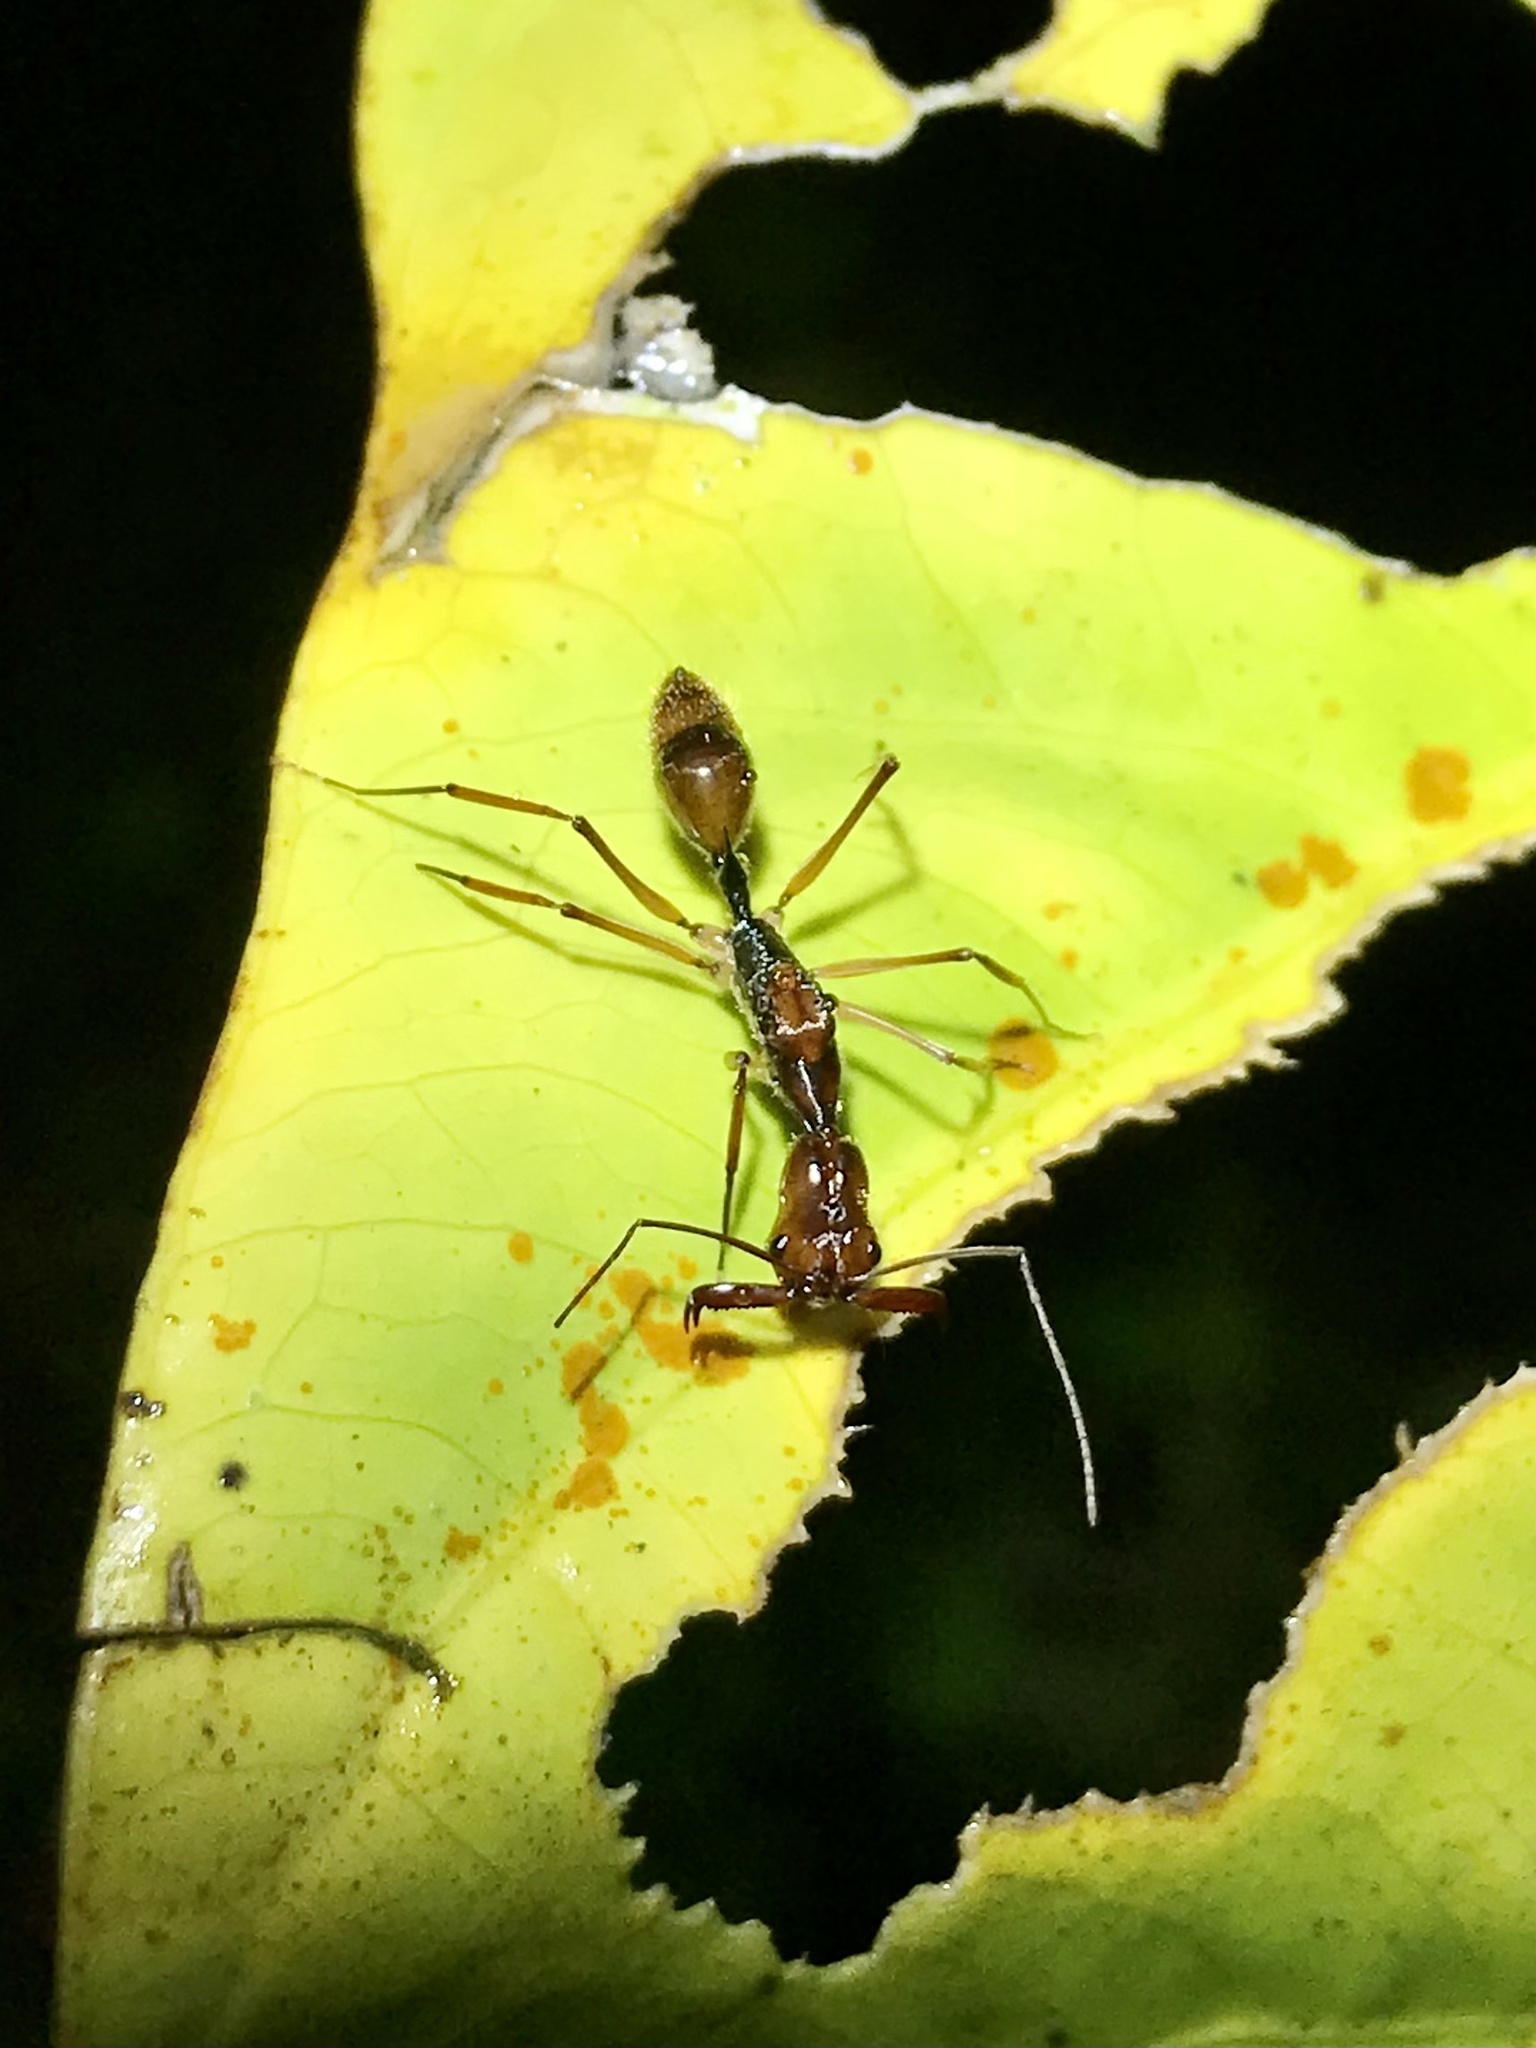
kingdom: Animalia
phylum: Arthropoda
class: Insecta
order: Hymenoptera
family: Formicidae
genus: Odontomachus
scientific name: Odontomachus hastatus
